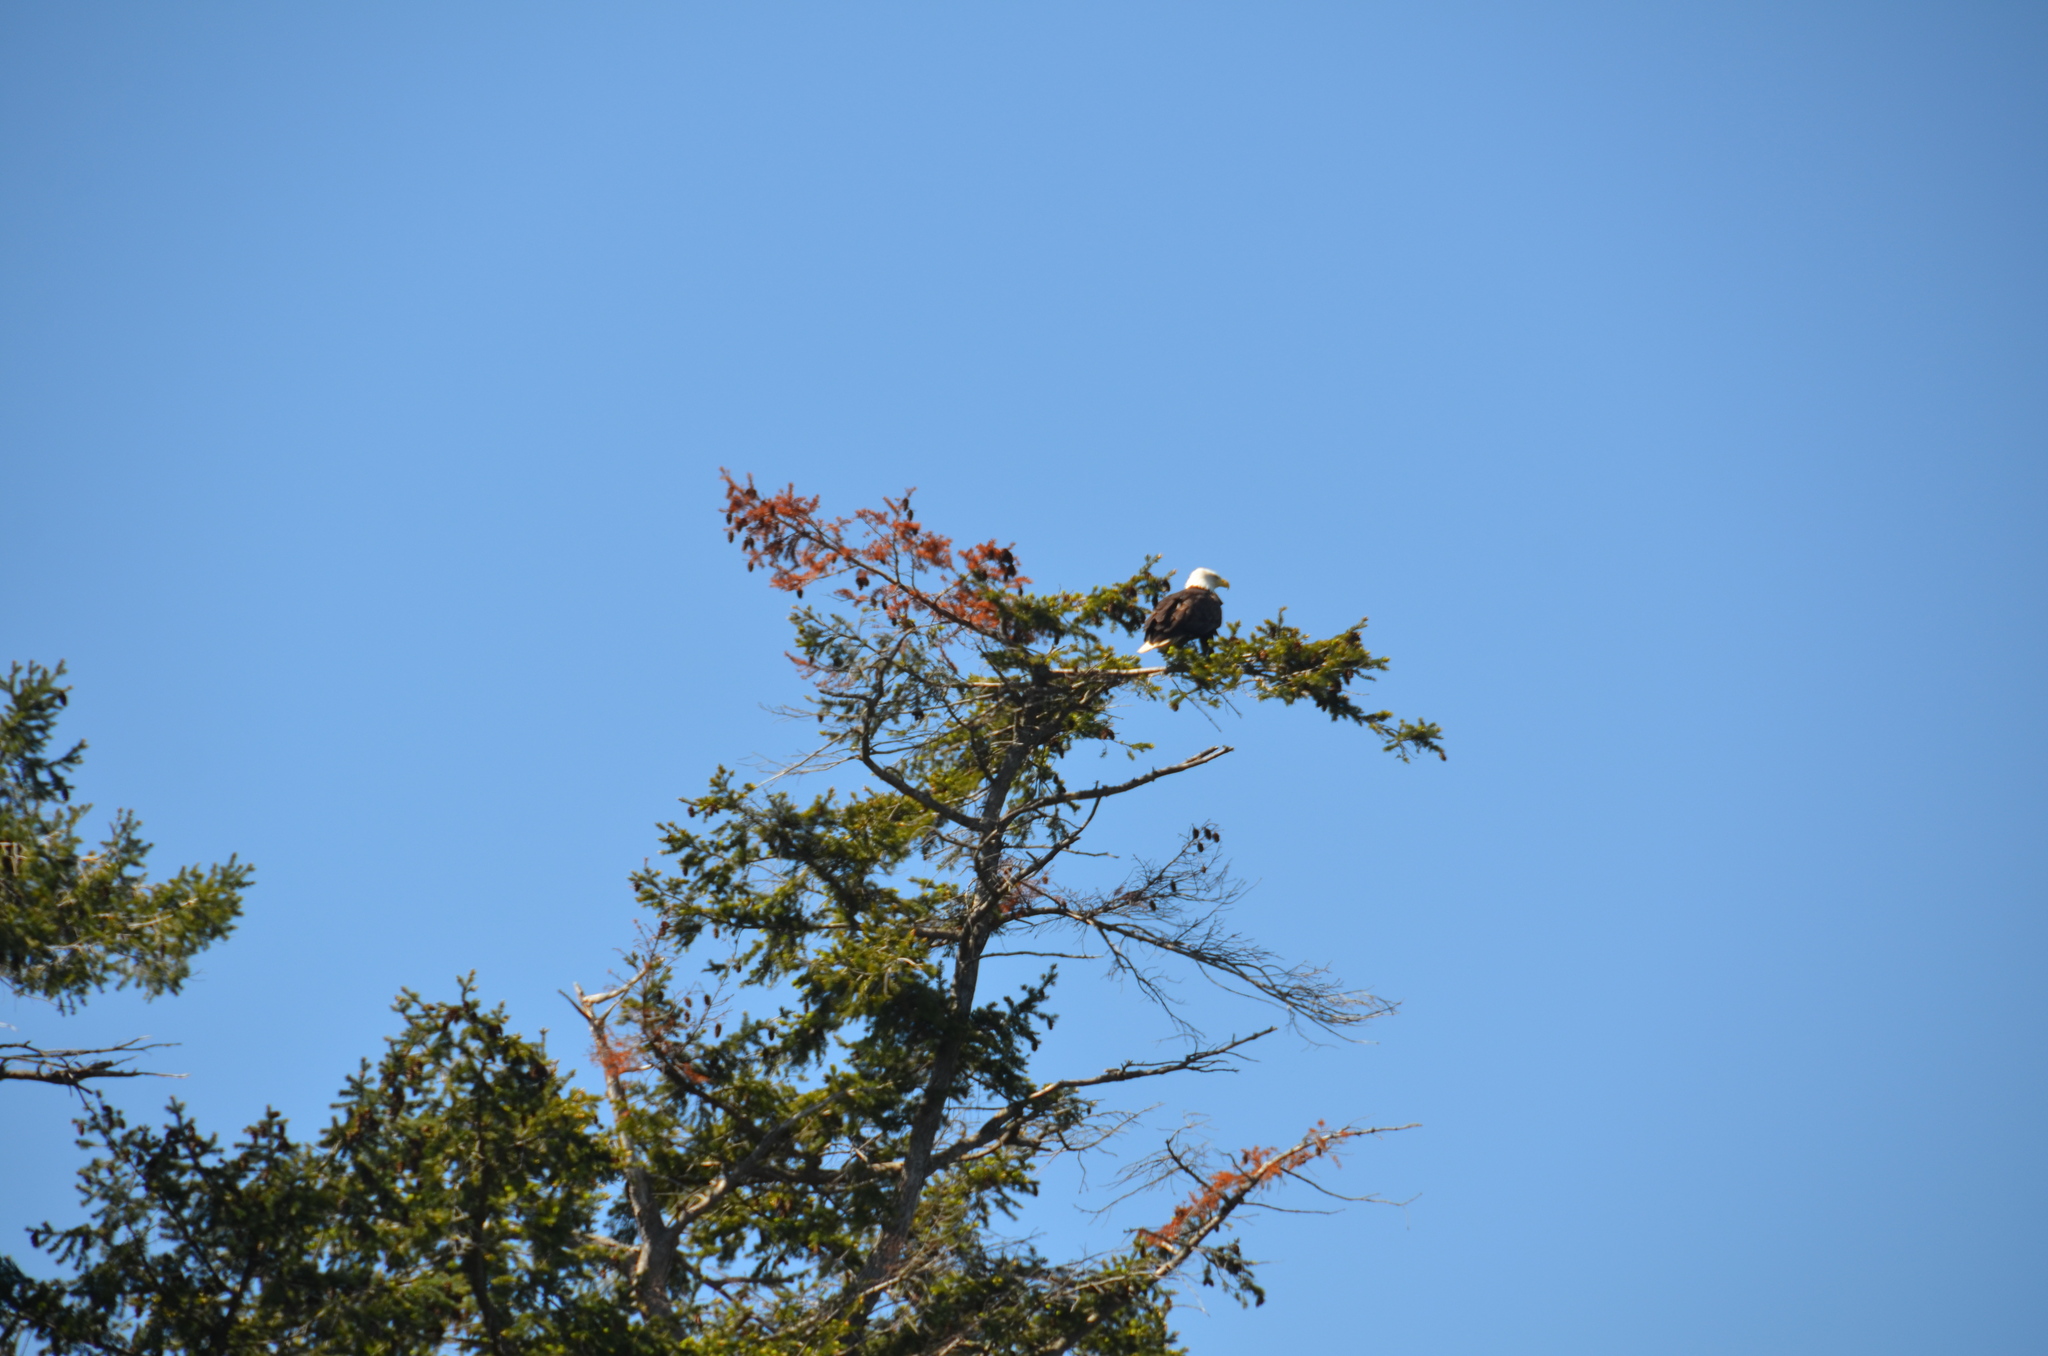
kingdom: Animalia
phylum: Chordata
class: Aves
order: Accipitriformes
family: Accipitridae
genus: Haliaeetus
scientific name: Haliaeetus leucocephalus
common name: Bald eagle
